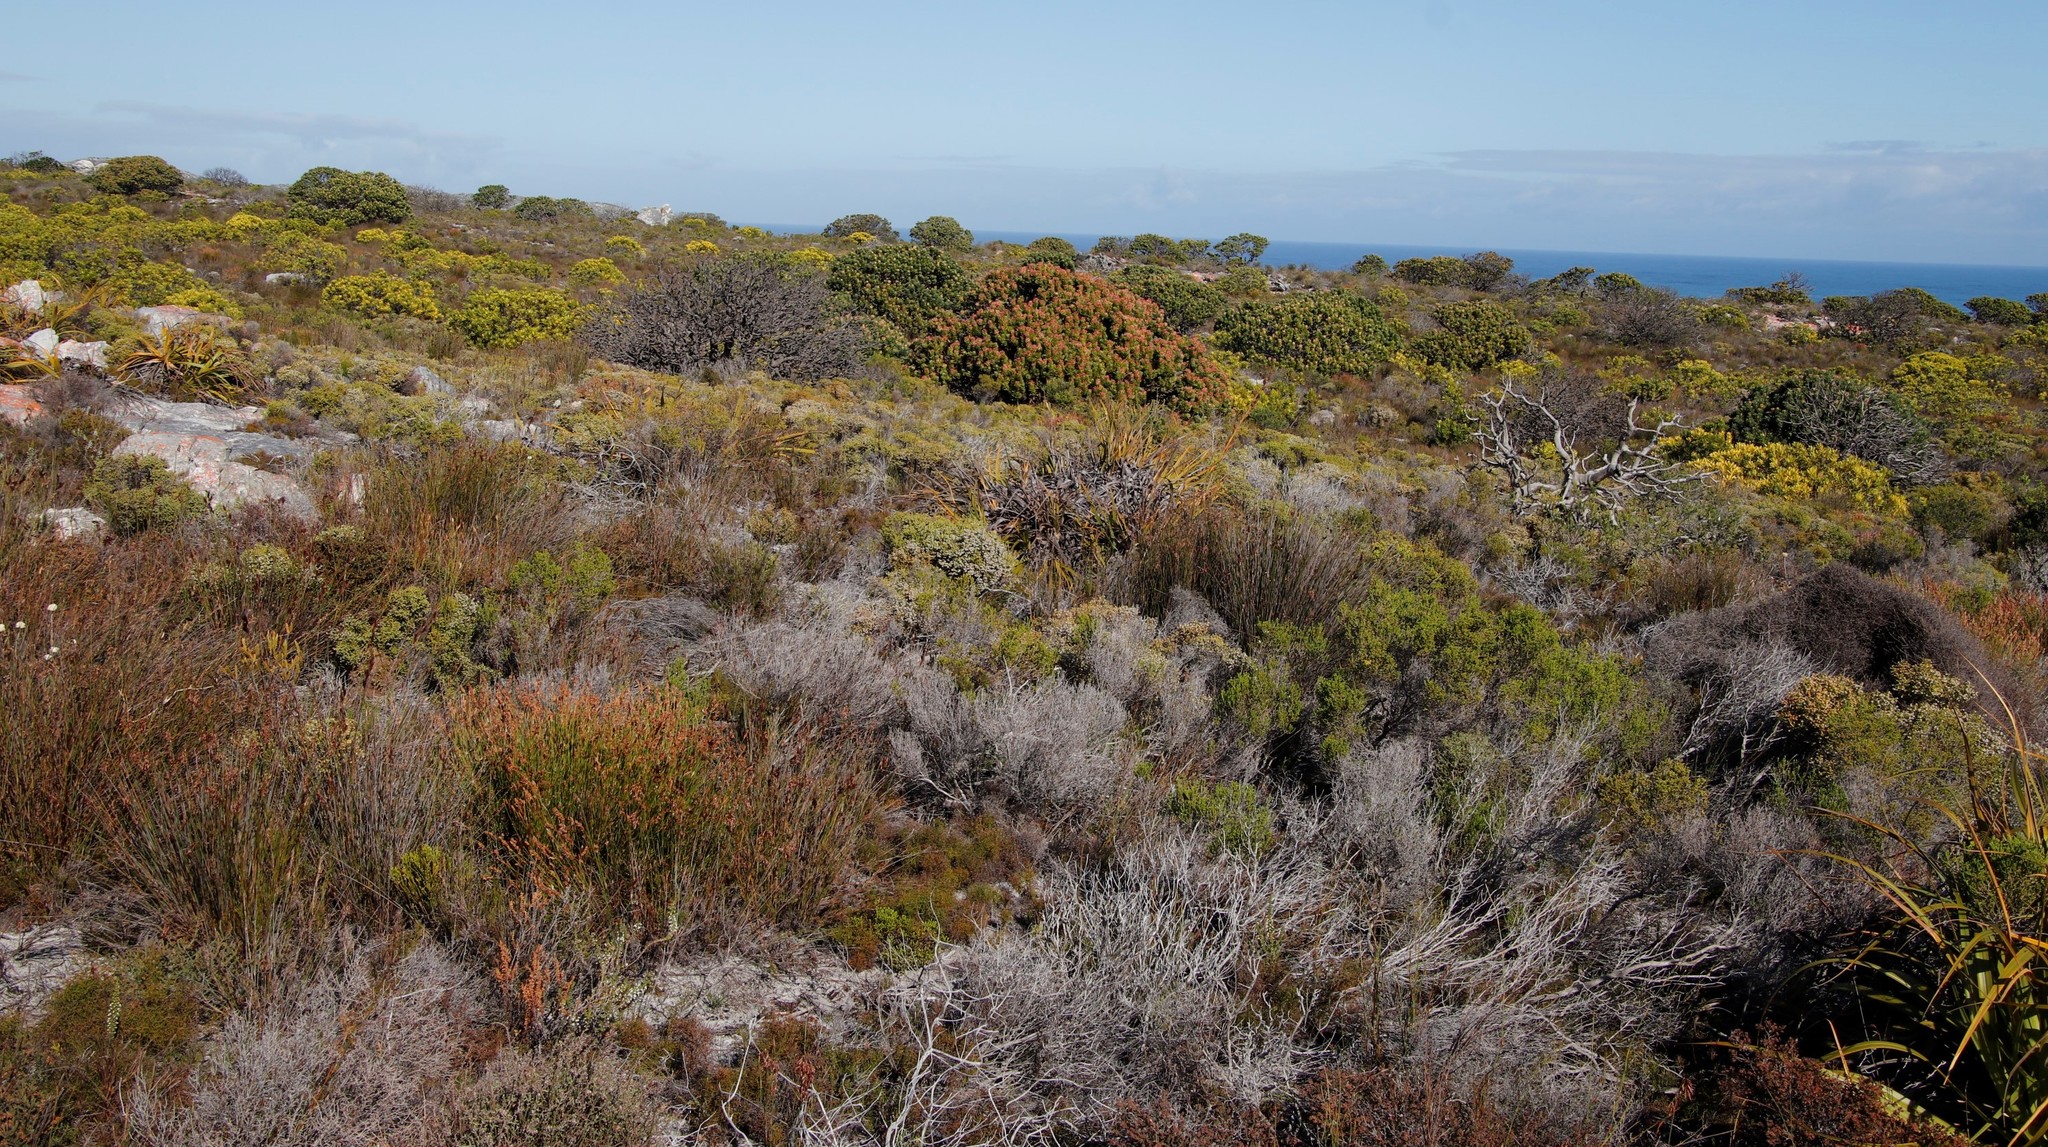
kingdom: Plantae
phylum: Tracheophyta
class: Magnoliopsida
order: Proteales
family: Proteaceae
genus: Mimetes
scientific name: Mimetes fimbriifolius
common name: Fringed bottlebrush
